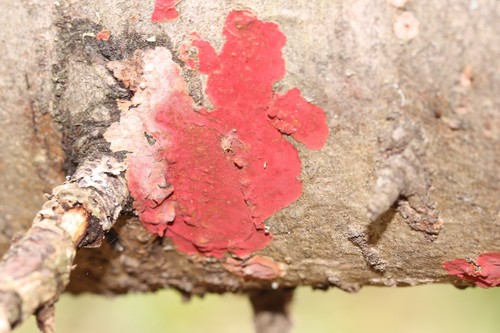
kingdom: Fungi
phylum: Basidiomycota
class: Agaricomycetes
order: Hymenochaetales
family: Hymenochaetaceae
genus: Hymenochaete
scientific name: Hymenochaete cruenta
